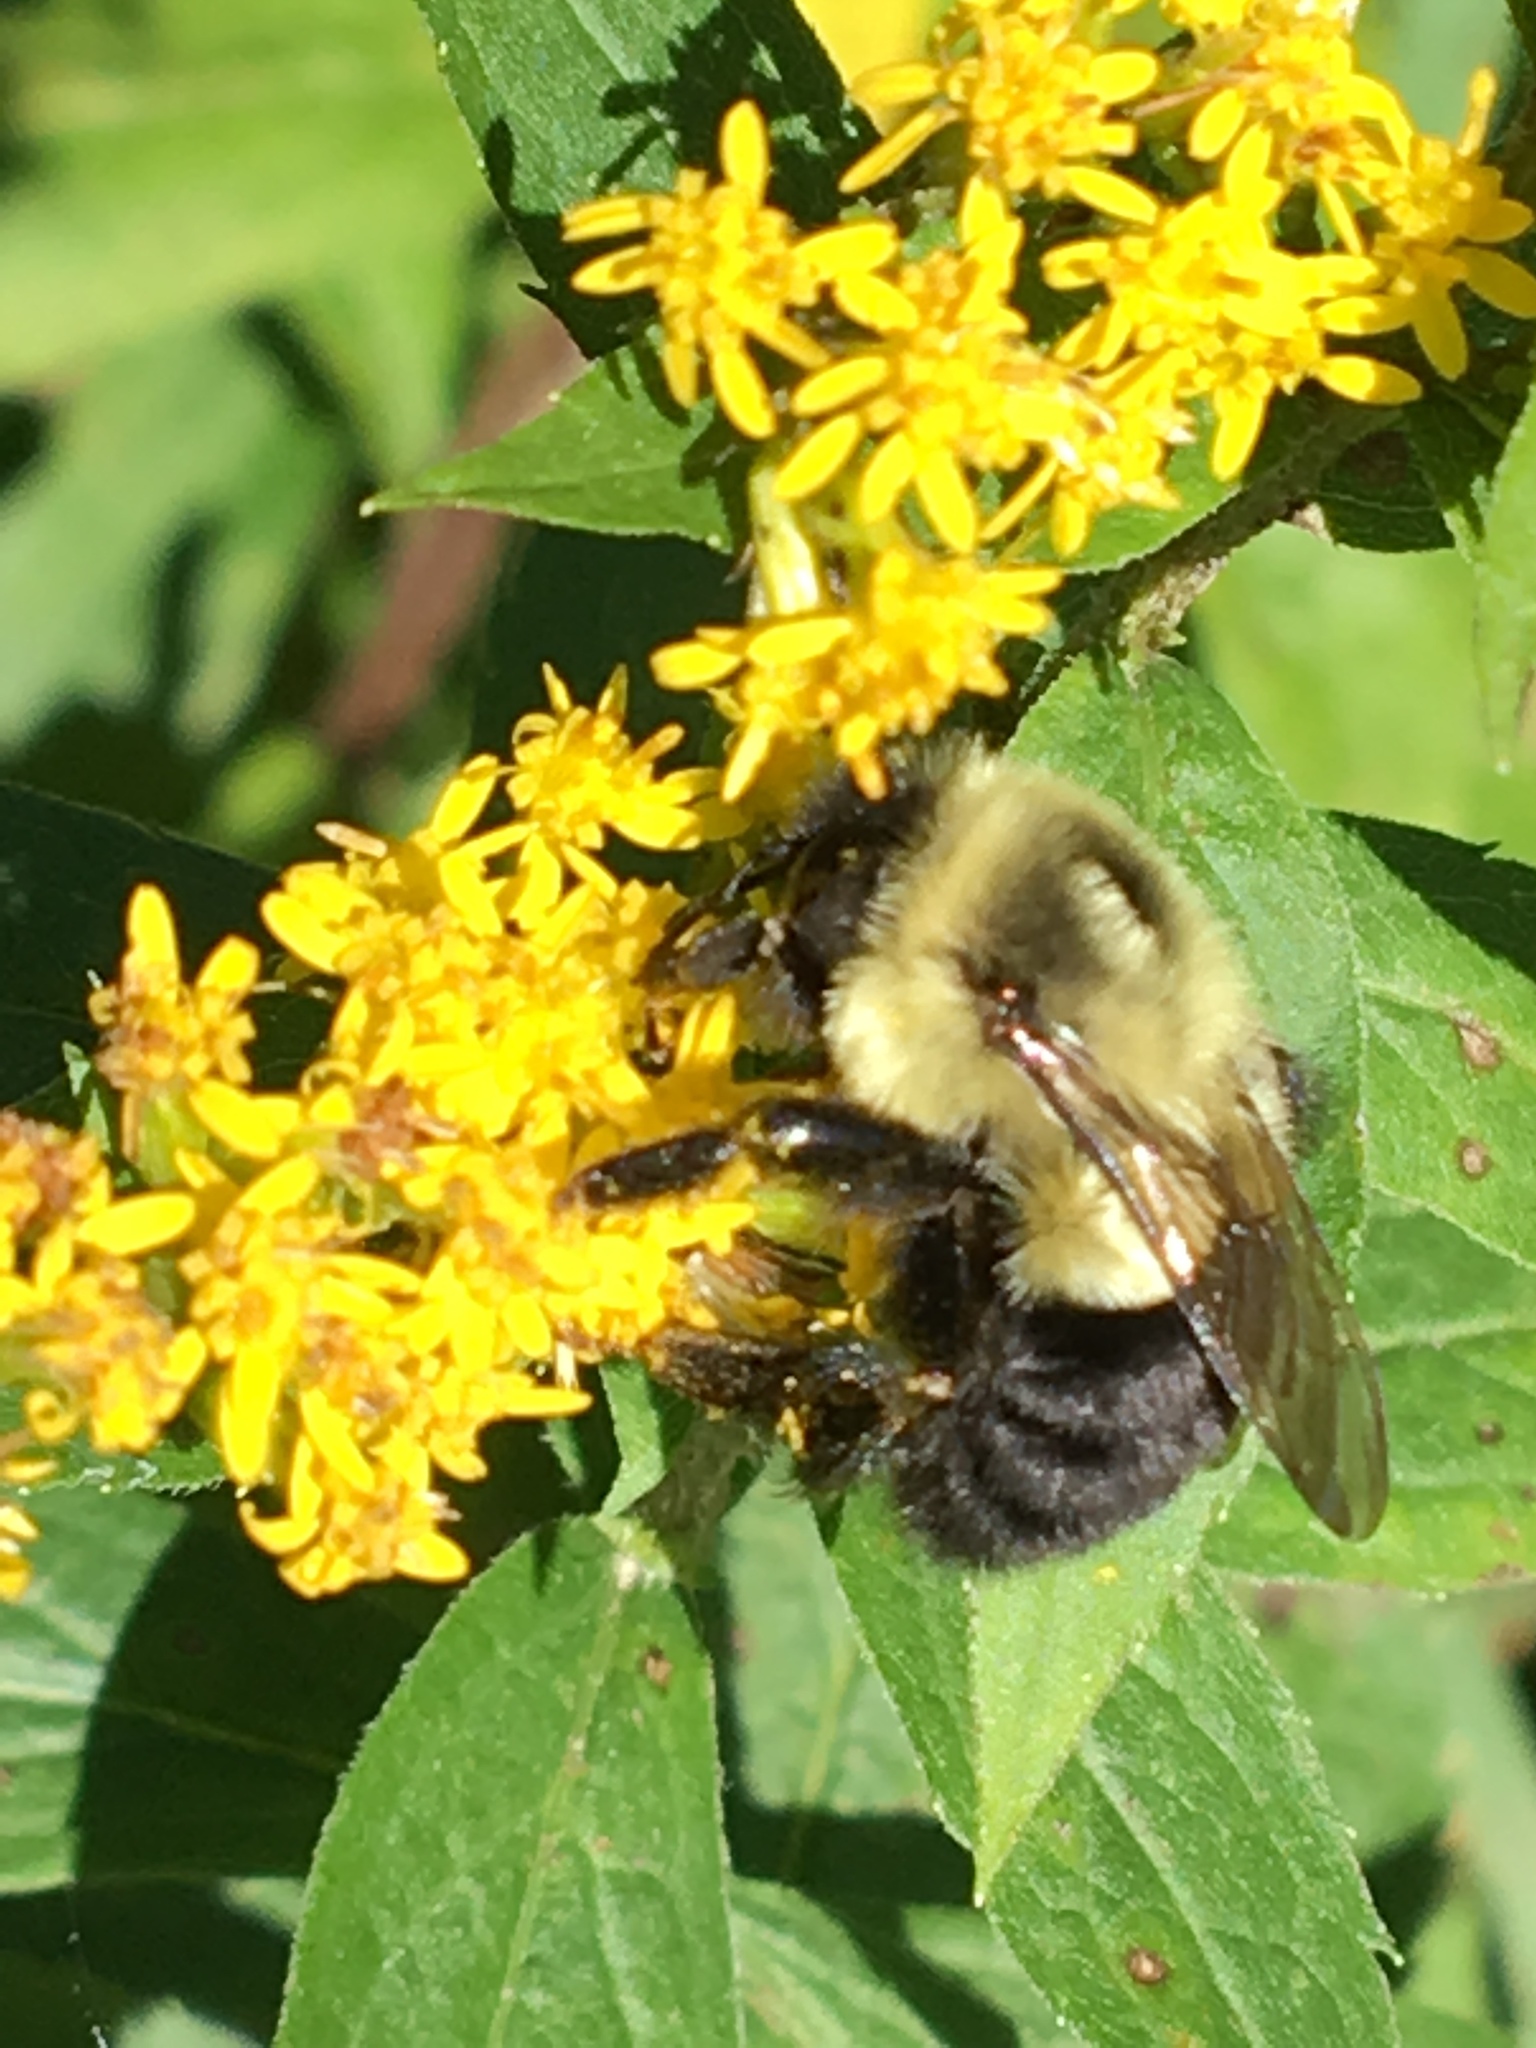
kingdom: Animalia
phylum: Arthropoda
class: Insecta
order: Hymenoptera
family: Apidae
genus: Bombus
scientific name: Bombus impatiens
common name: Common eastern bumble bee
